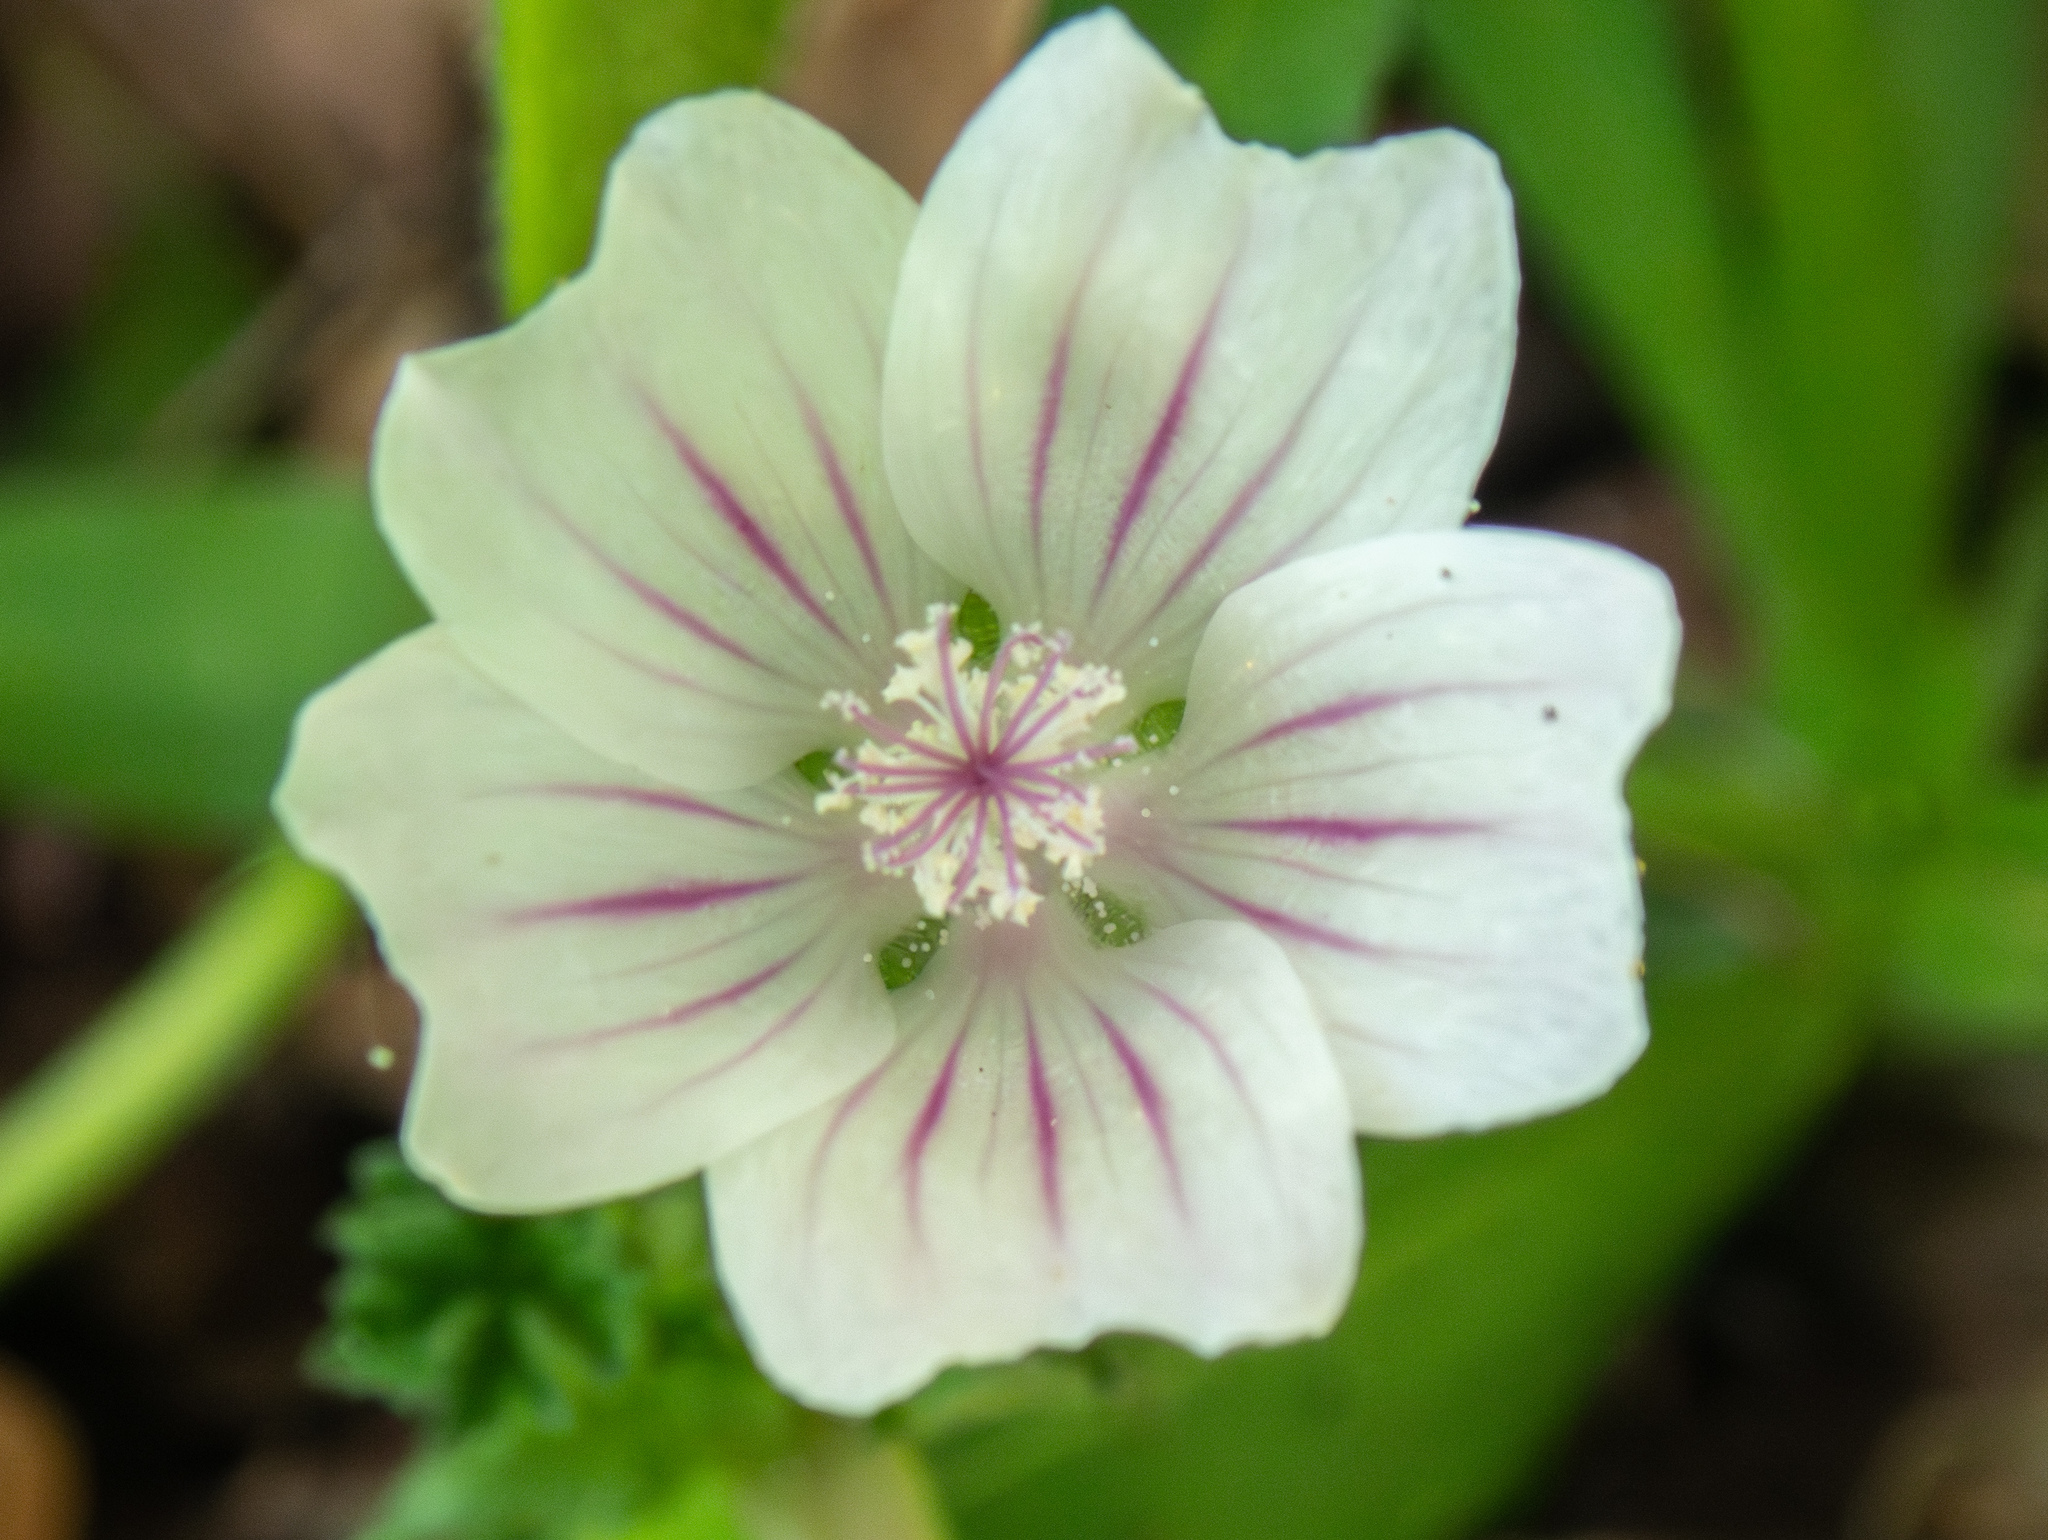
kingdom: Plantae
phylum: Tracheophyta
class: Magnoliopsida
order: Malvales
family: Malvaceae
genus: Malva
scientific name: Malva neglecta
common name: Common mallow
